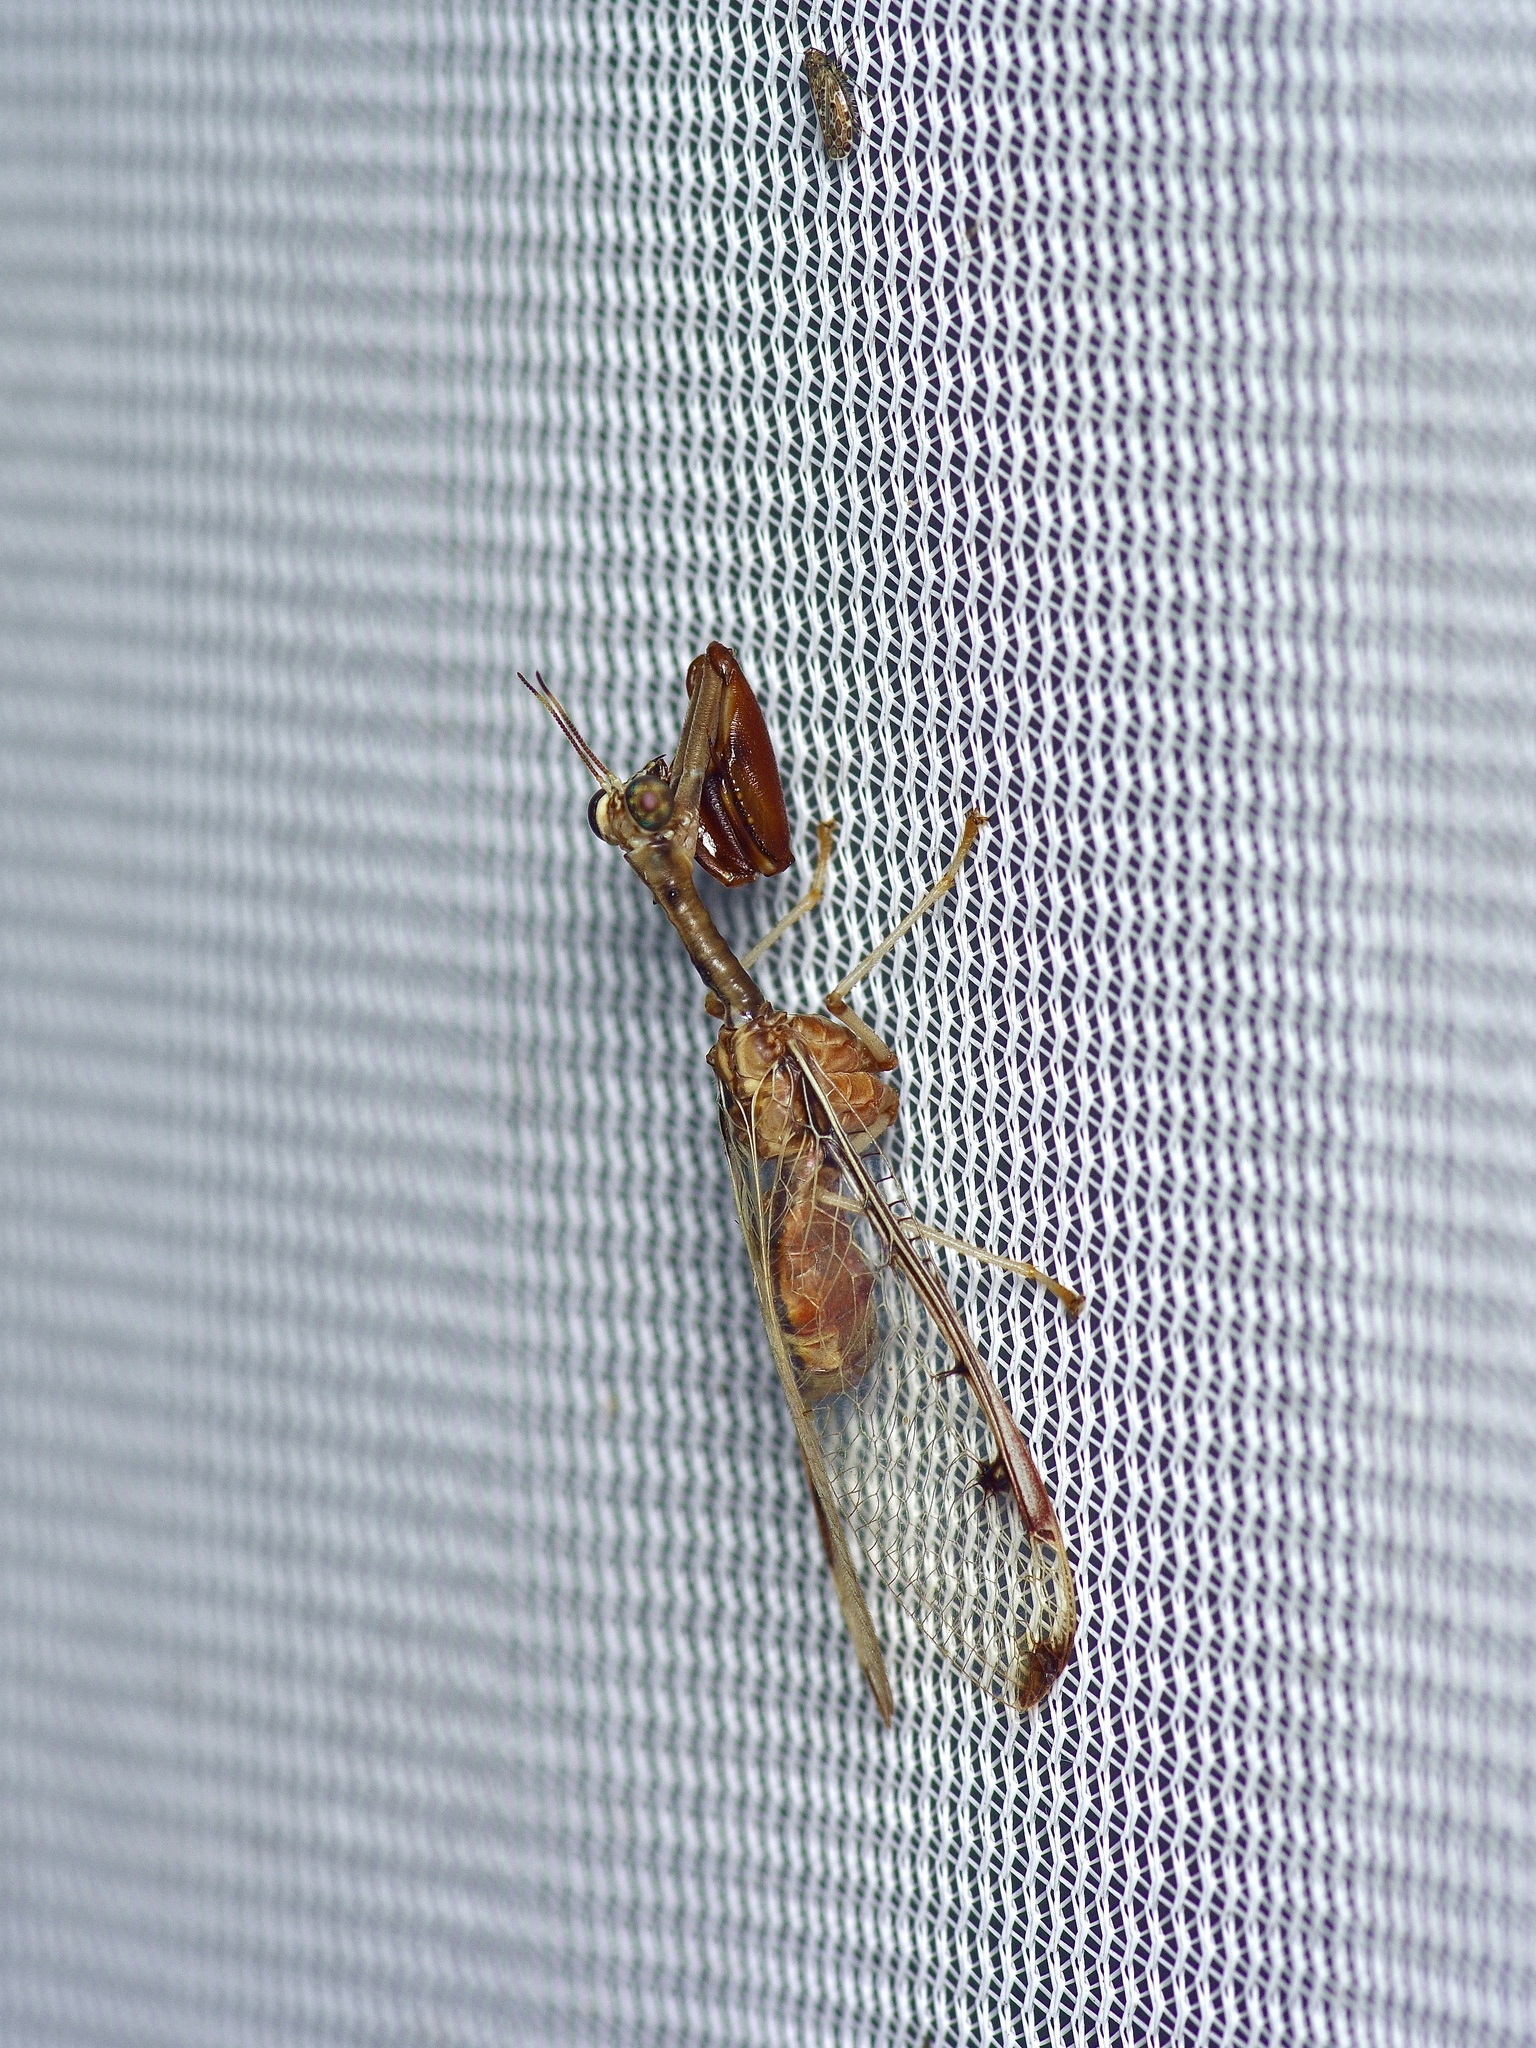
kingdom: Animalia
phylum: Arthropoda
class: Insecta
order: Neuroptera
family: Mantispidae
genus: Dicromantispa
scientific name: Dicromantispa interrupta
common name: Four-spotted mantidfly
